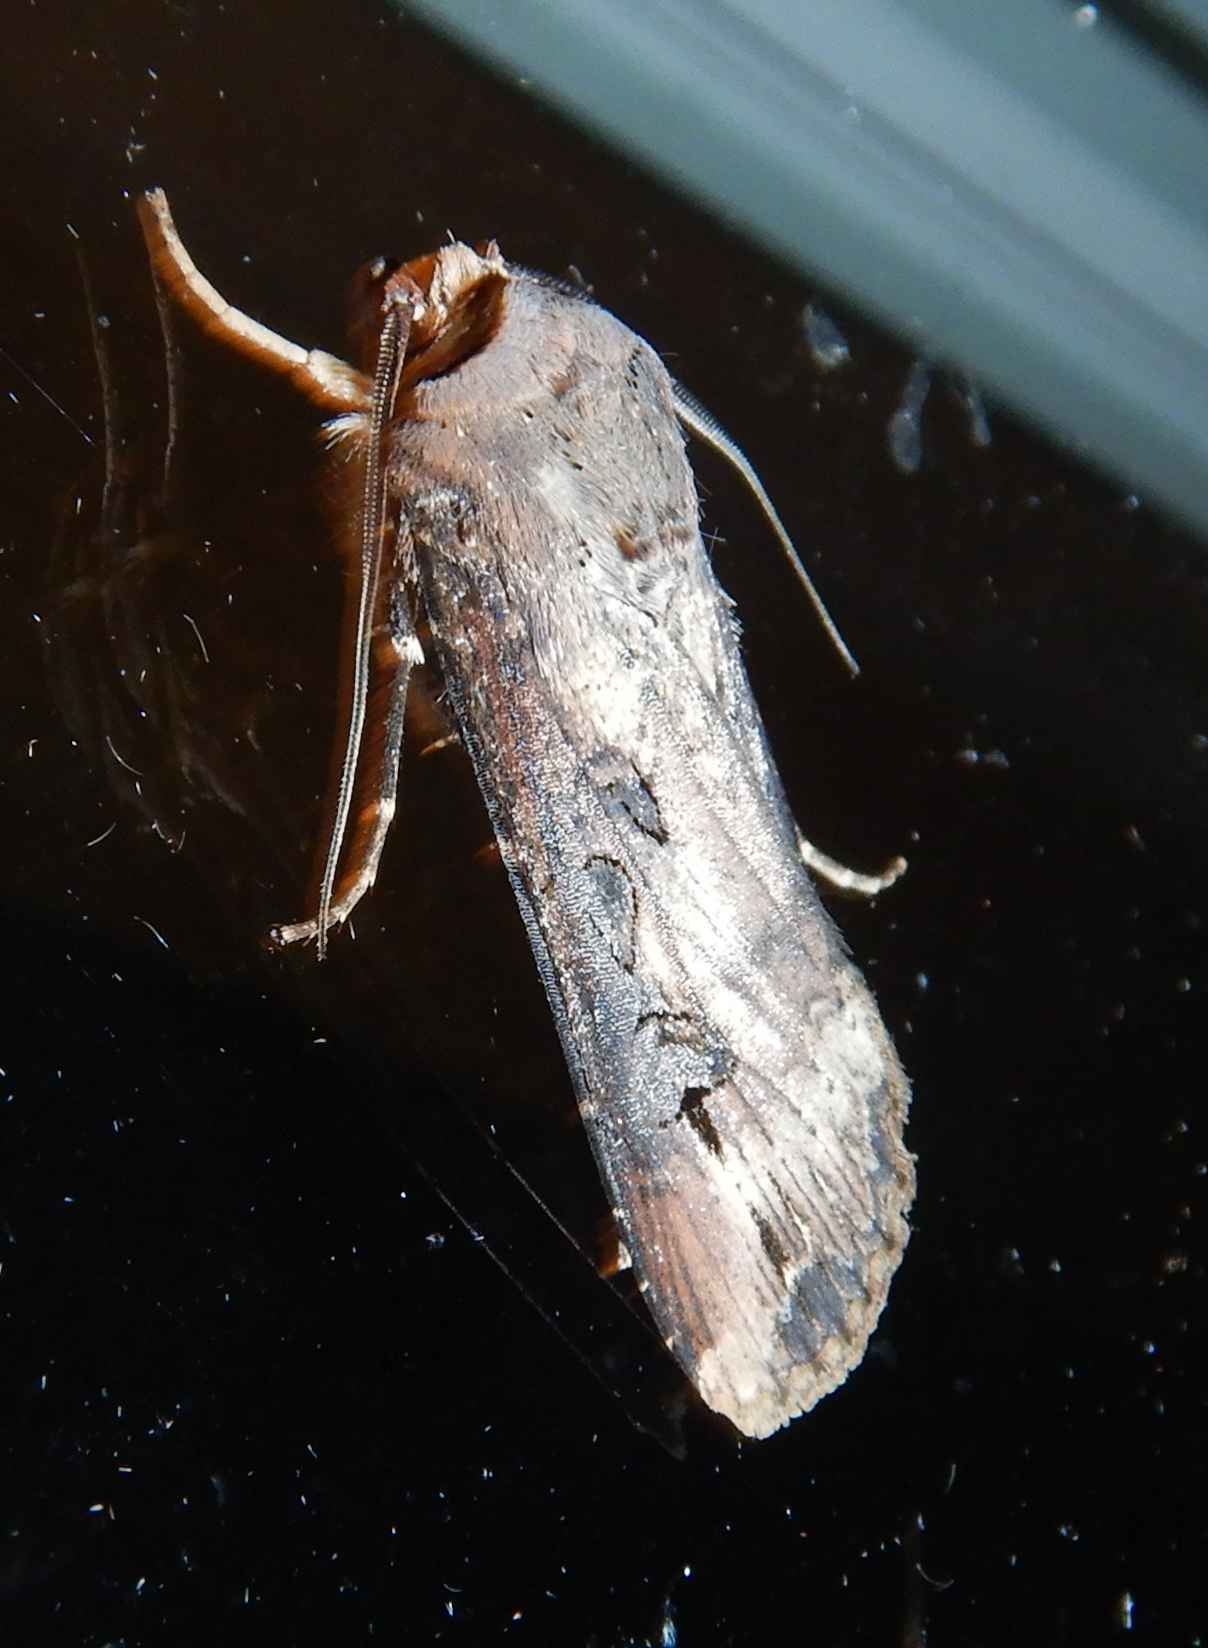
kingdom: Animalia
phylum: Arthropoda
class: Insecta
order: Lepidoptera
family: Noctuidae
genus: Agrotis
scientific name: Agrotis ipsilon
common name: Dark sword-grass
